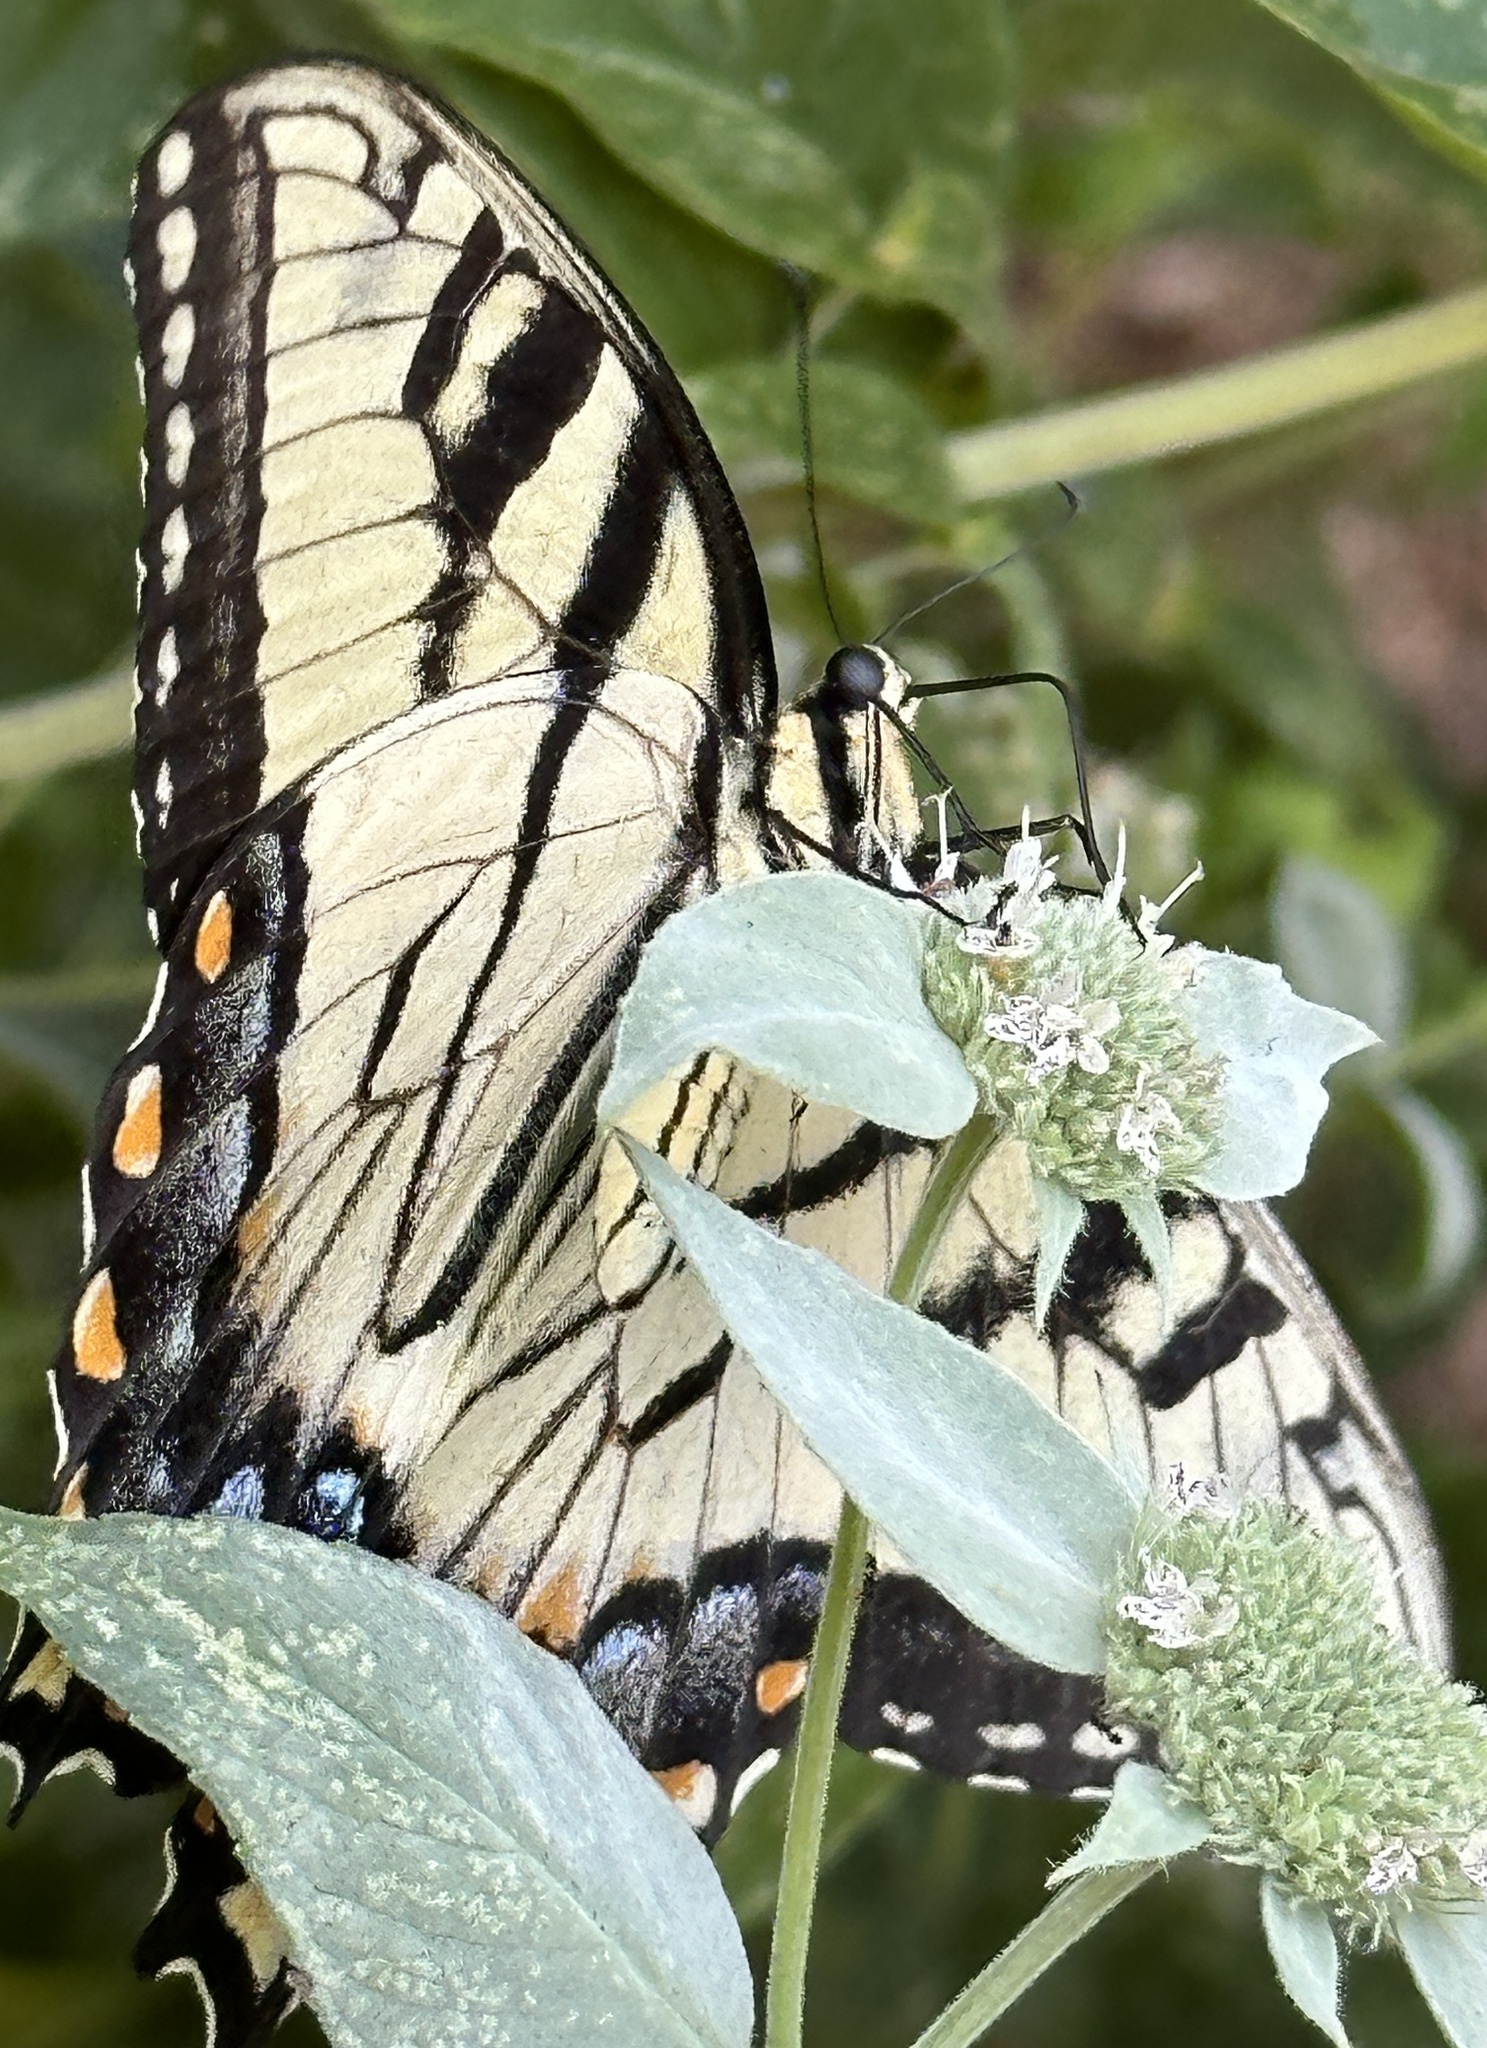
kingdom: Animalia
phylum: Arthropoda
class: Insecta
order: Lepidoptera
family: Papilionidae
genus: Papilio
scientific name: Papilio glaucus
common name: Tiger swallowtail
